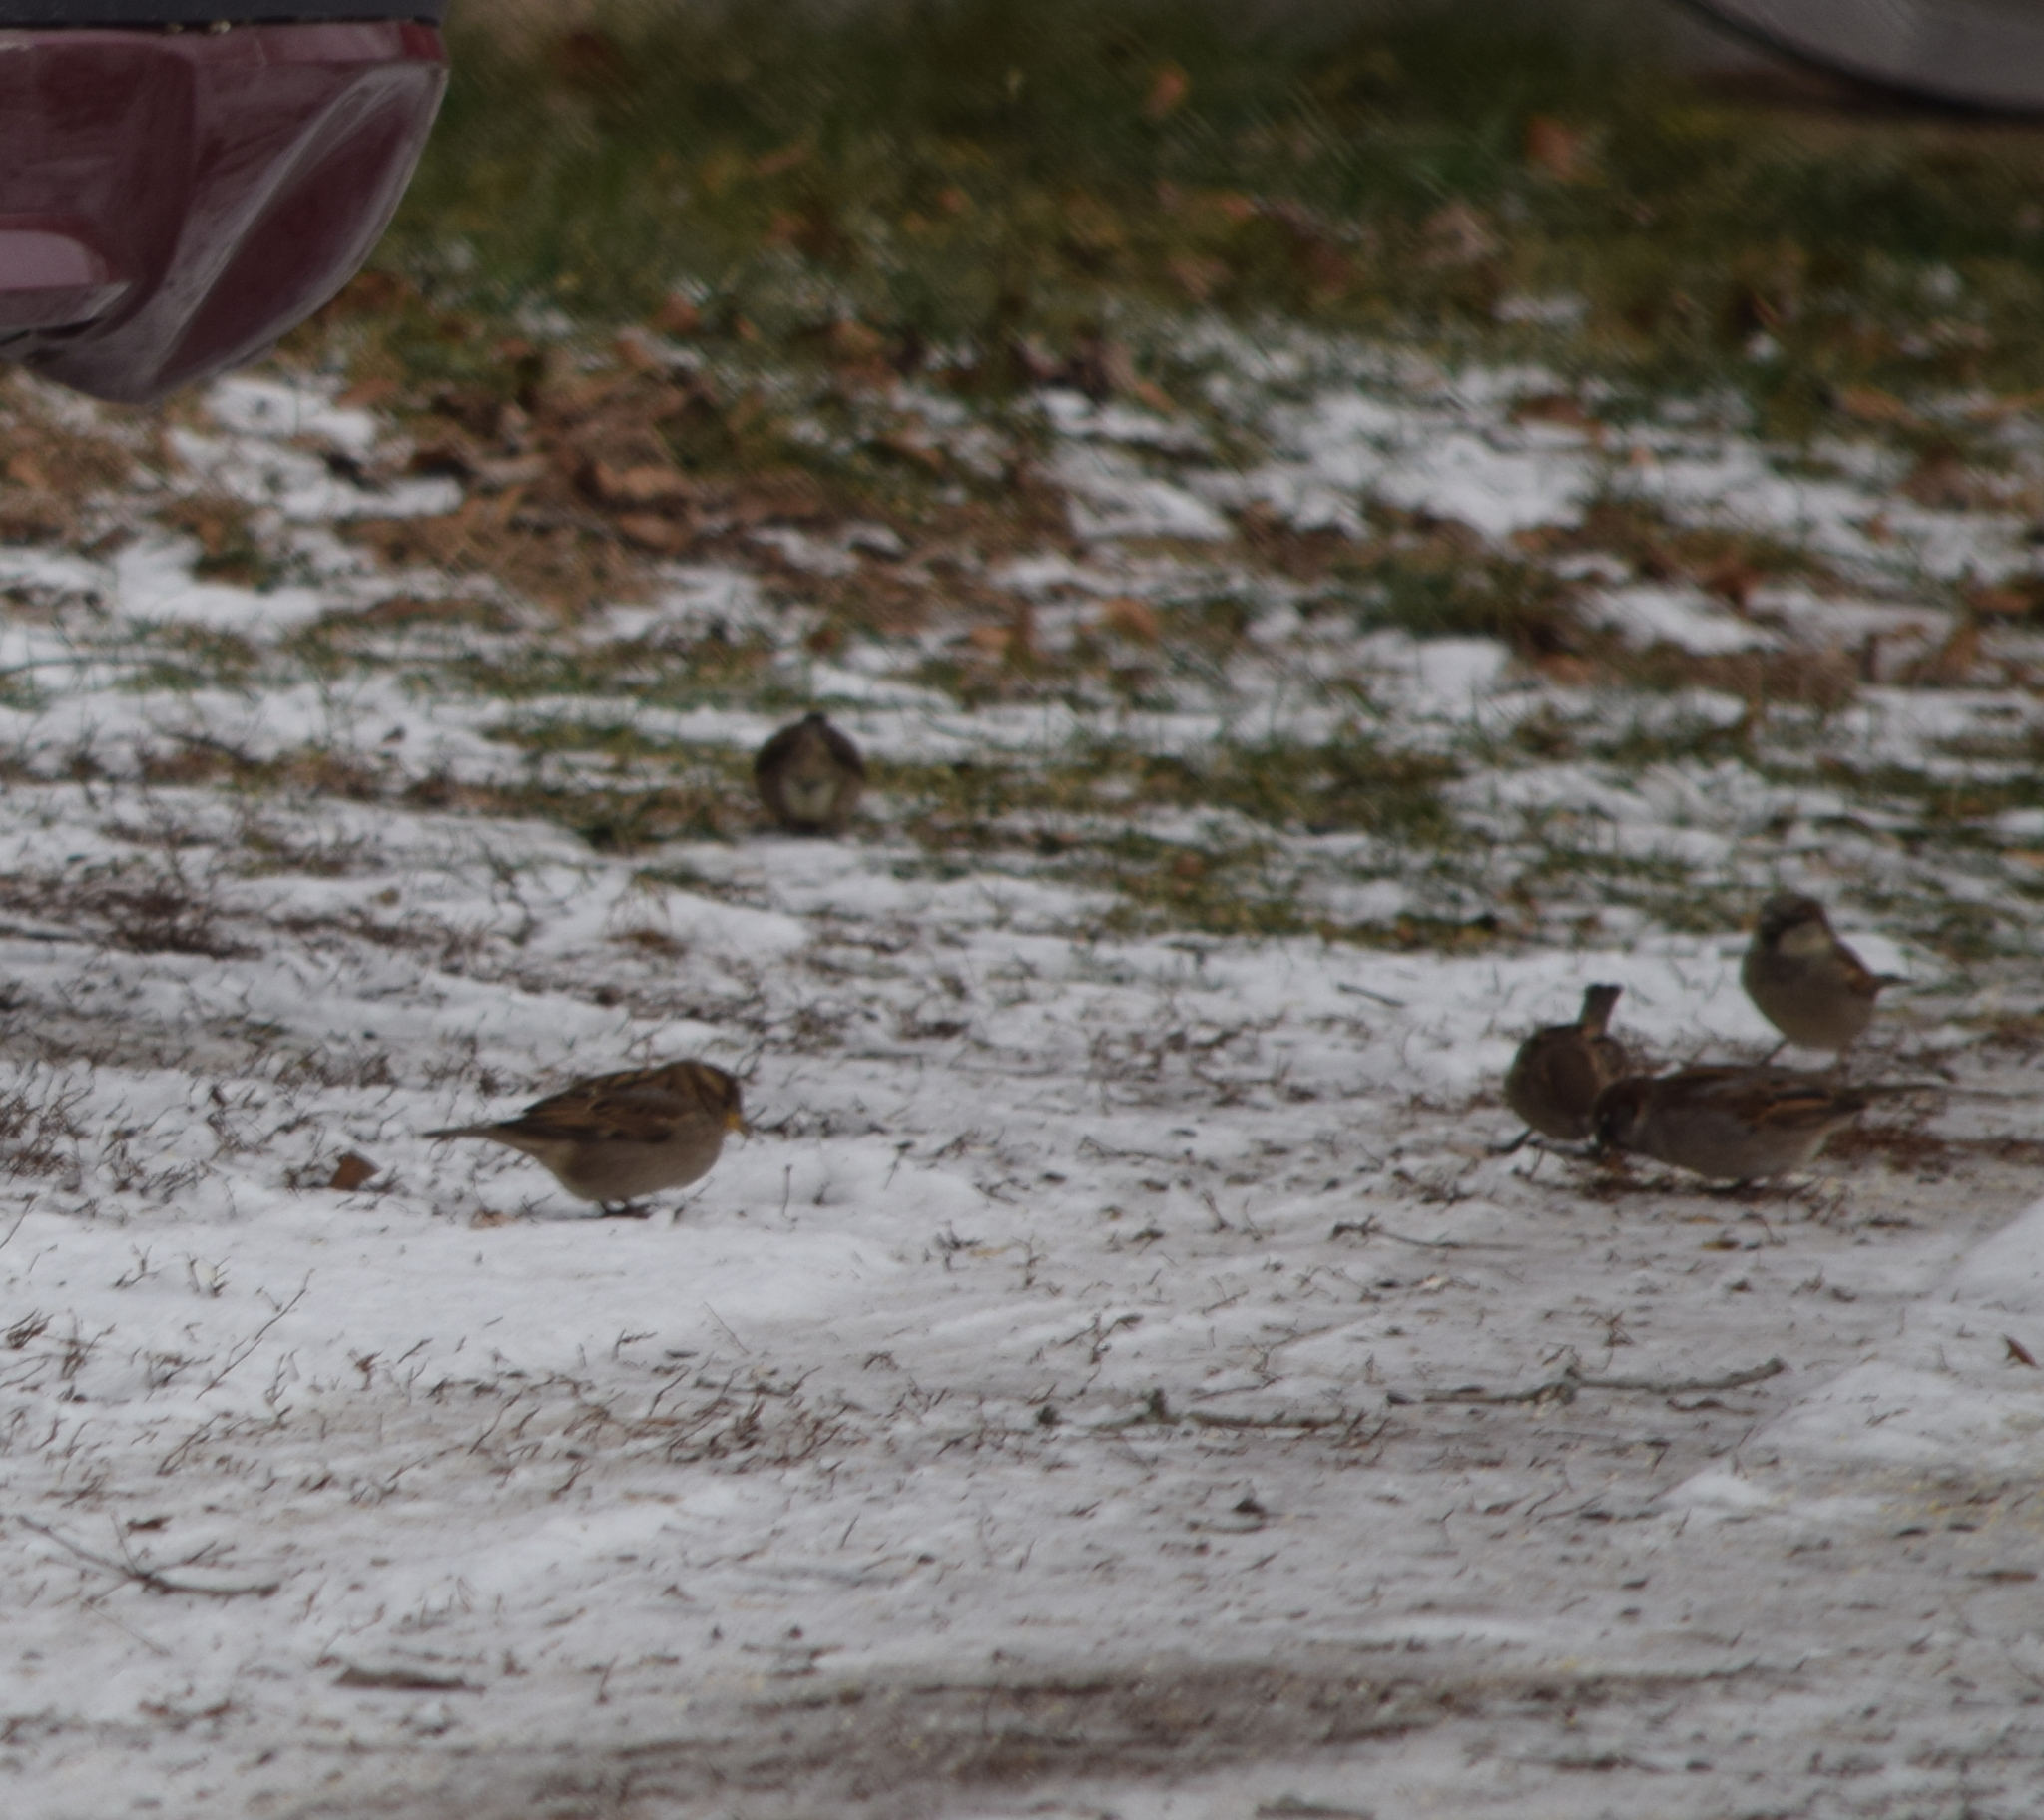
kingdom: Animalia
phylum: Chordata
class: Aves
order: Passeriformes
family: Passeridae
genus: Passer
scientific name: Passer domesticus
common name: House sparrow
